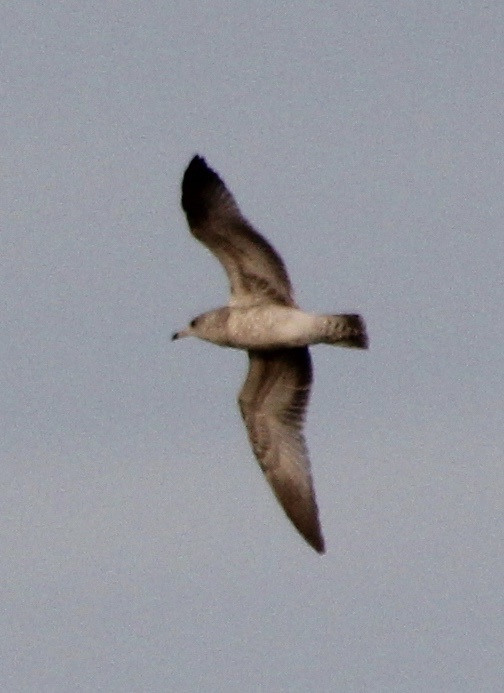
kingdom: Animalia
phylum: Chordata
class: Aves
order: Charadriiformes
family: Laridae
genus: Larus
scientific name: Larus delawarensis
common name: Ring-billed gull
